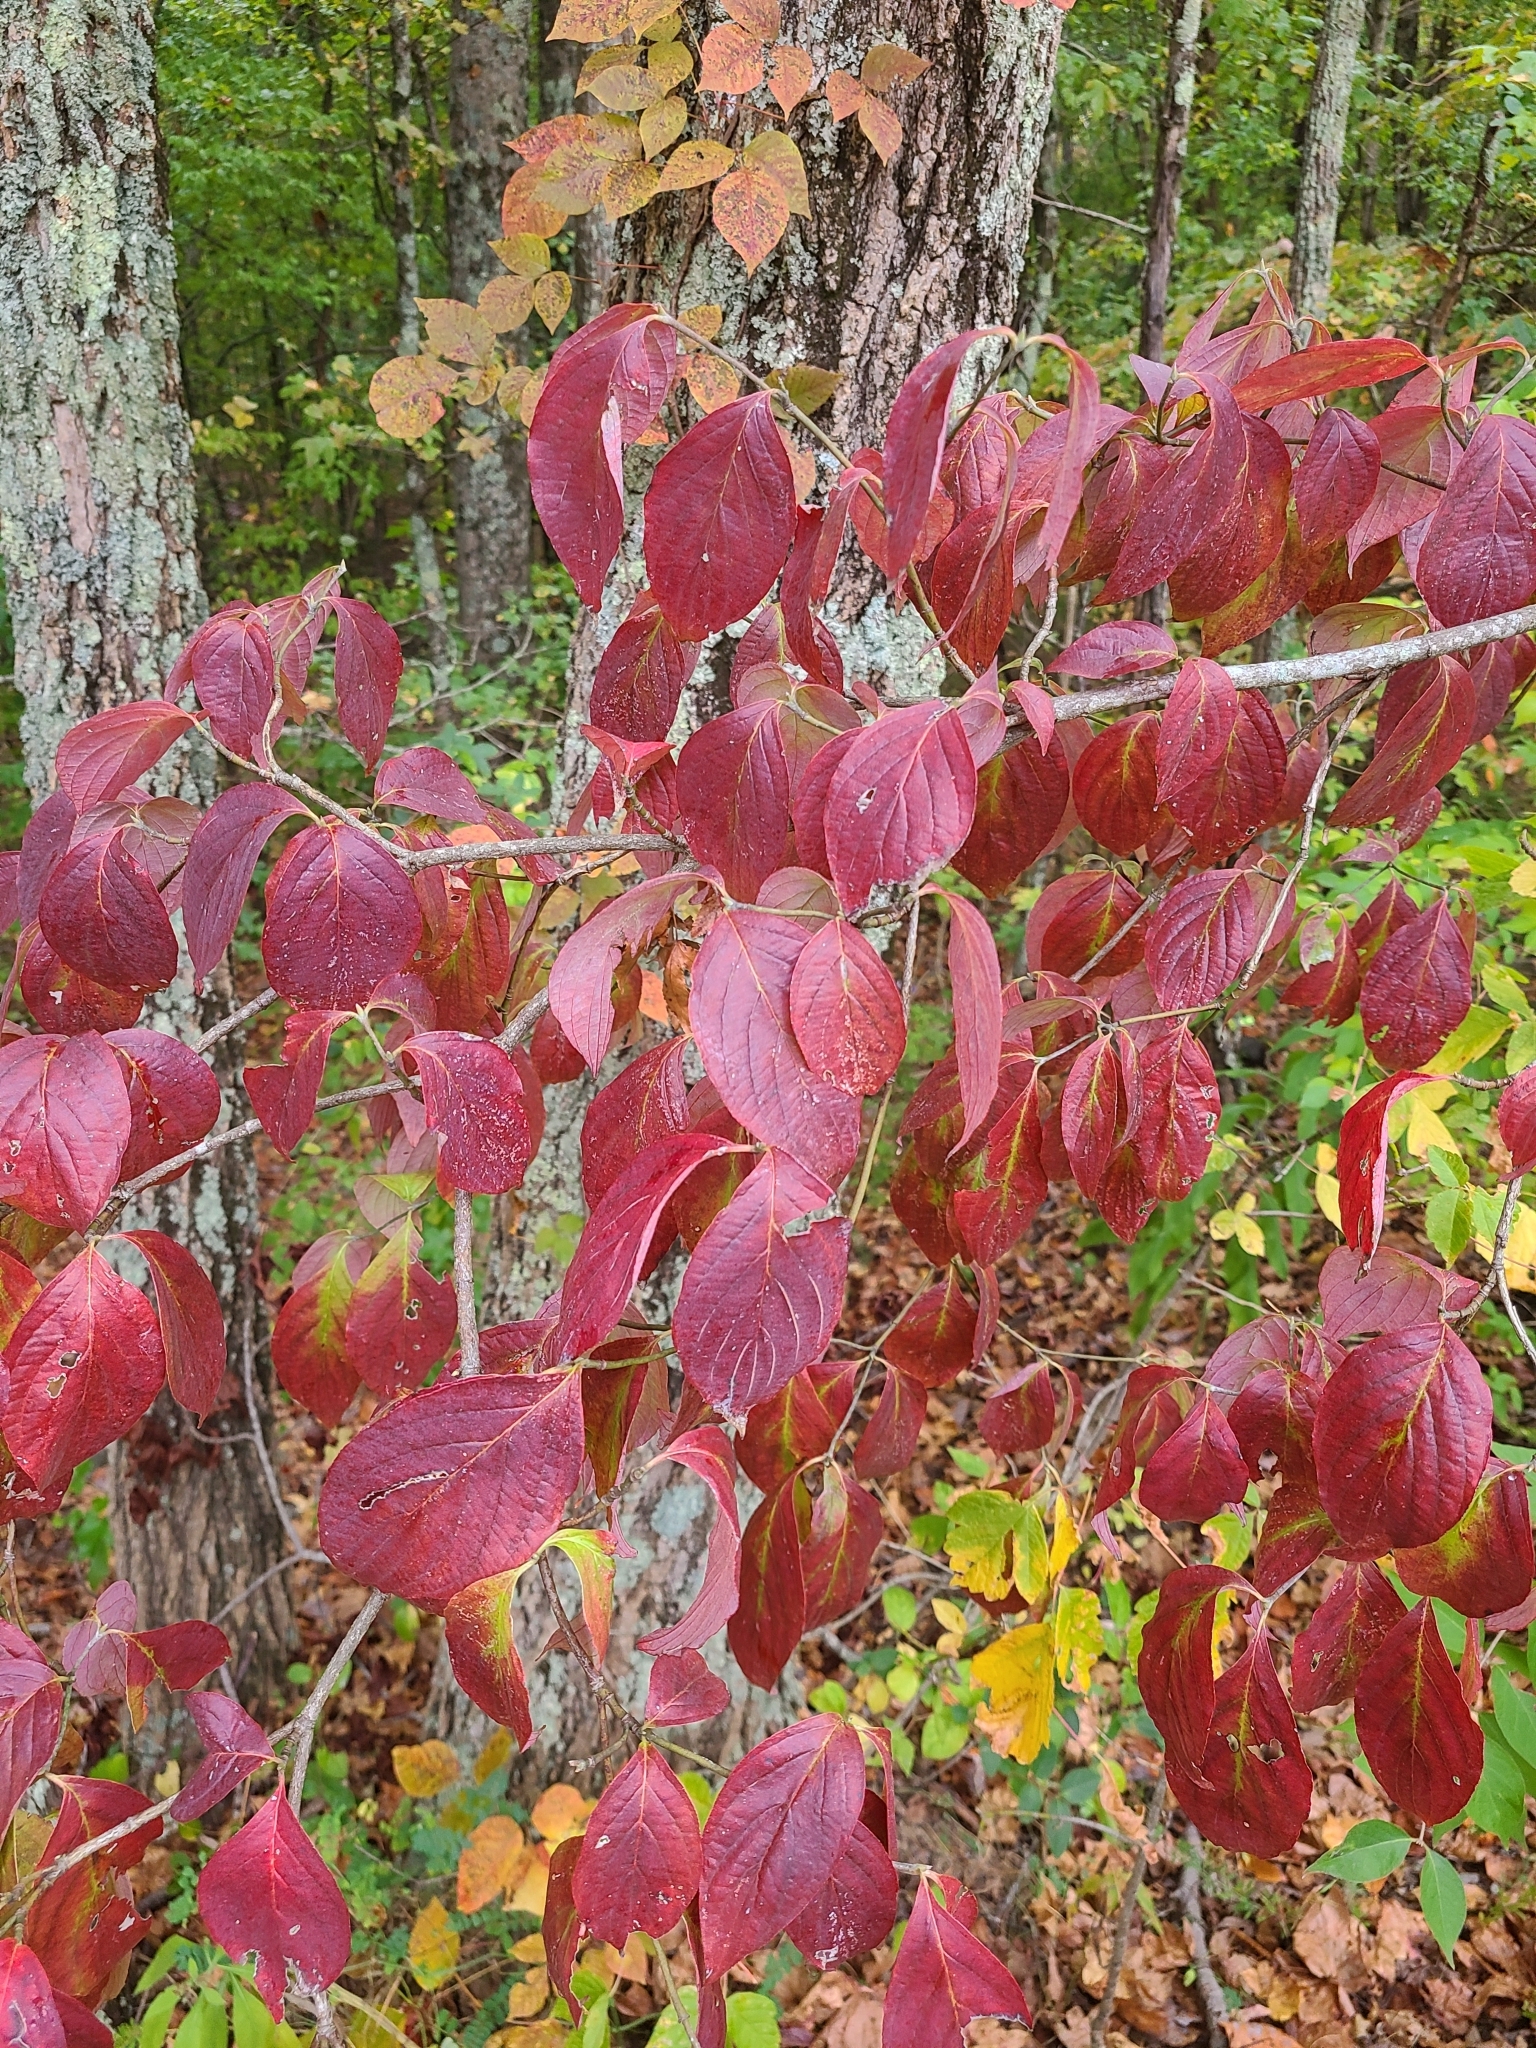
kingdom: Plantae
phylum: Tracheophyta
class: Magnoliopsida
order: Cornales
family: Cornaceae
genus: Cornus
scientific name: Cornus florida
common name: Flowering dogwood
